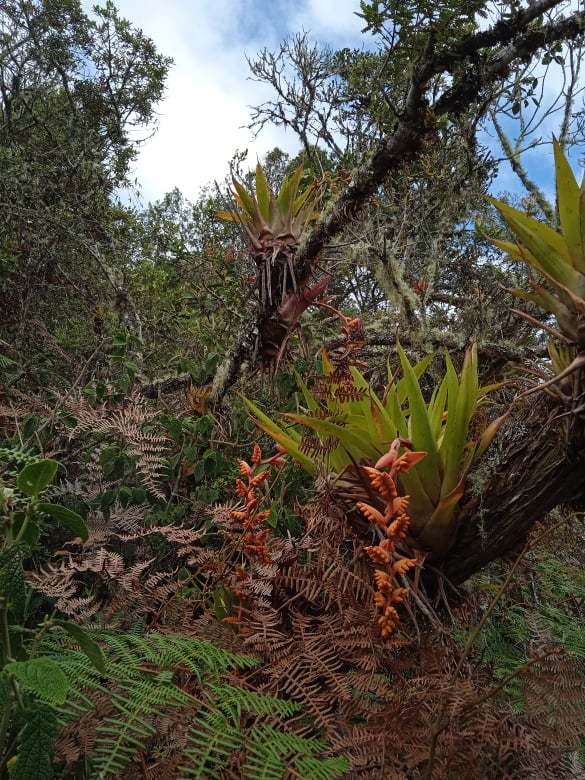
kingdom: Plantae
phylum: Tracheophyta
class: Liliopsida
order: Poales
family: Bromeliaceae
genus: Racinaea
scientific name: Racinaea tetrantha
